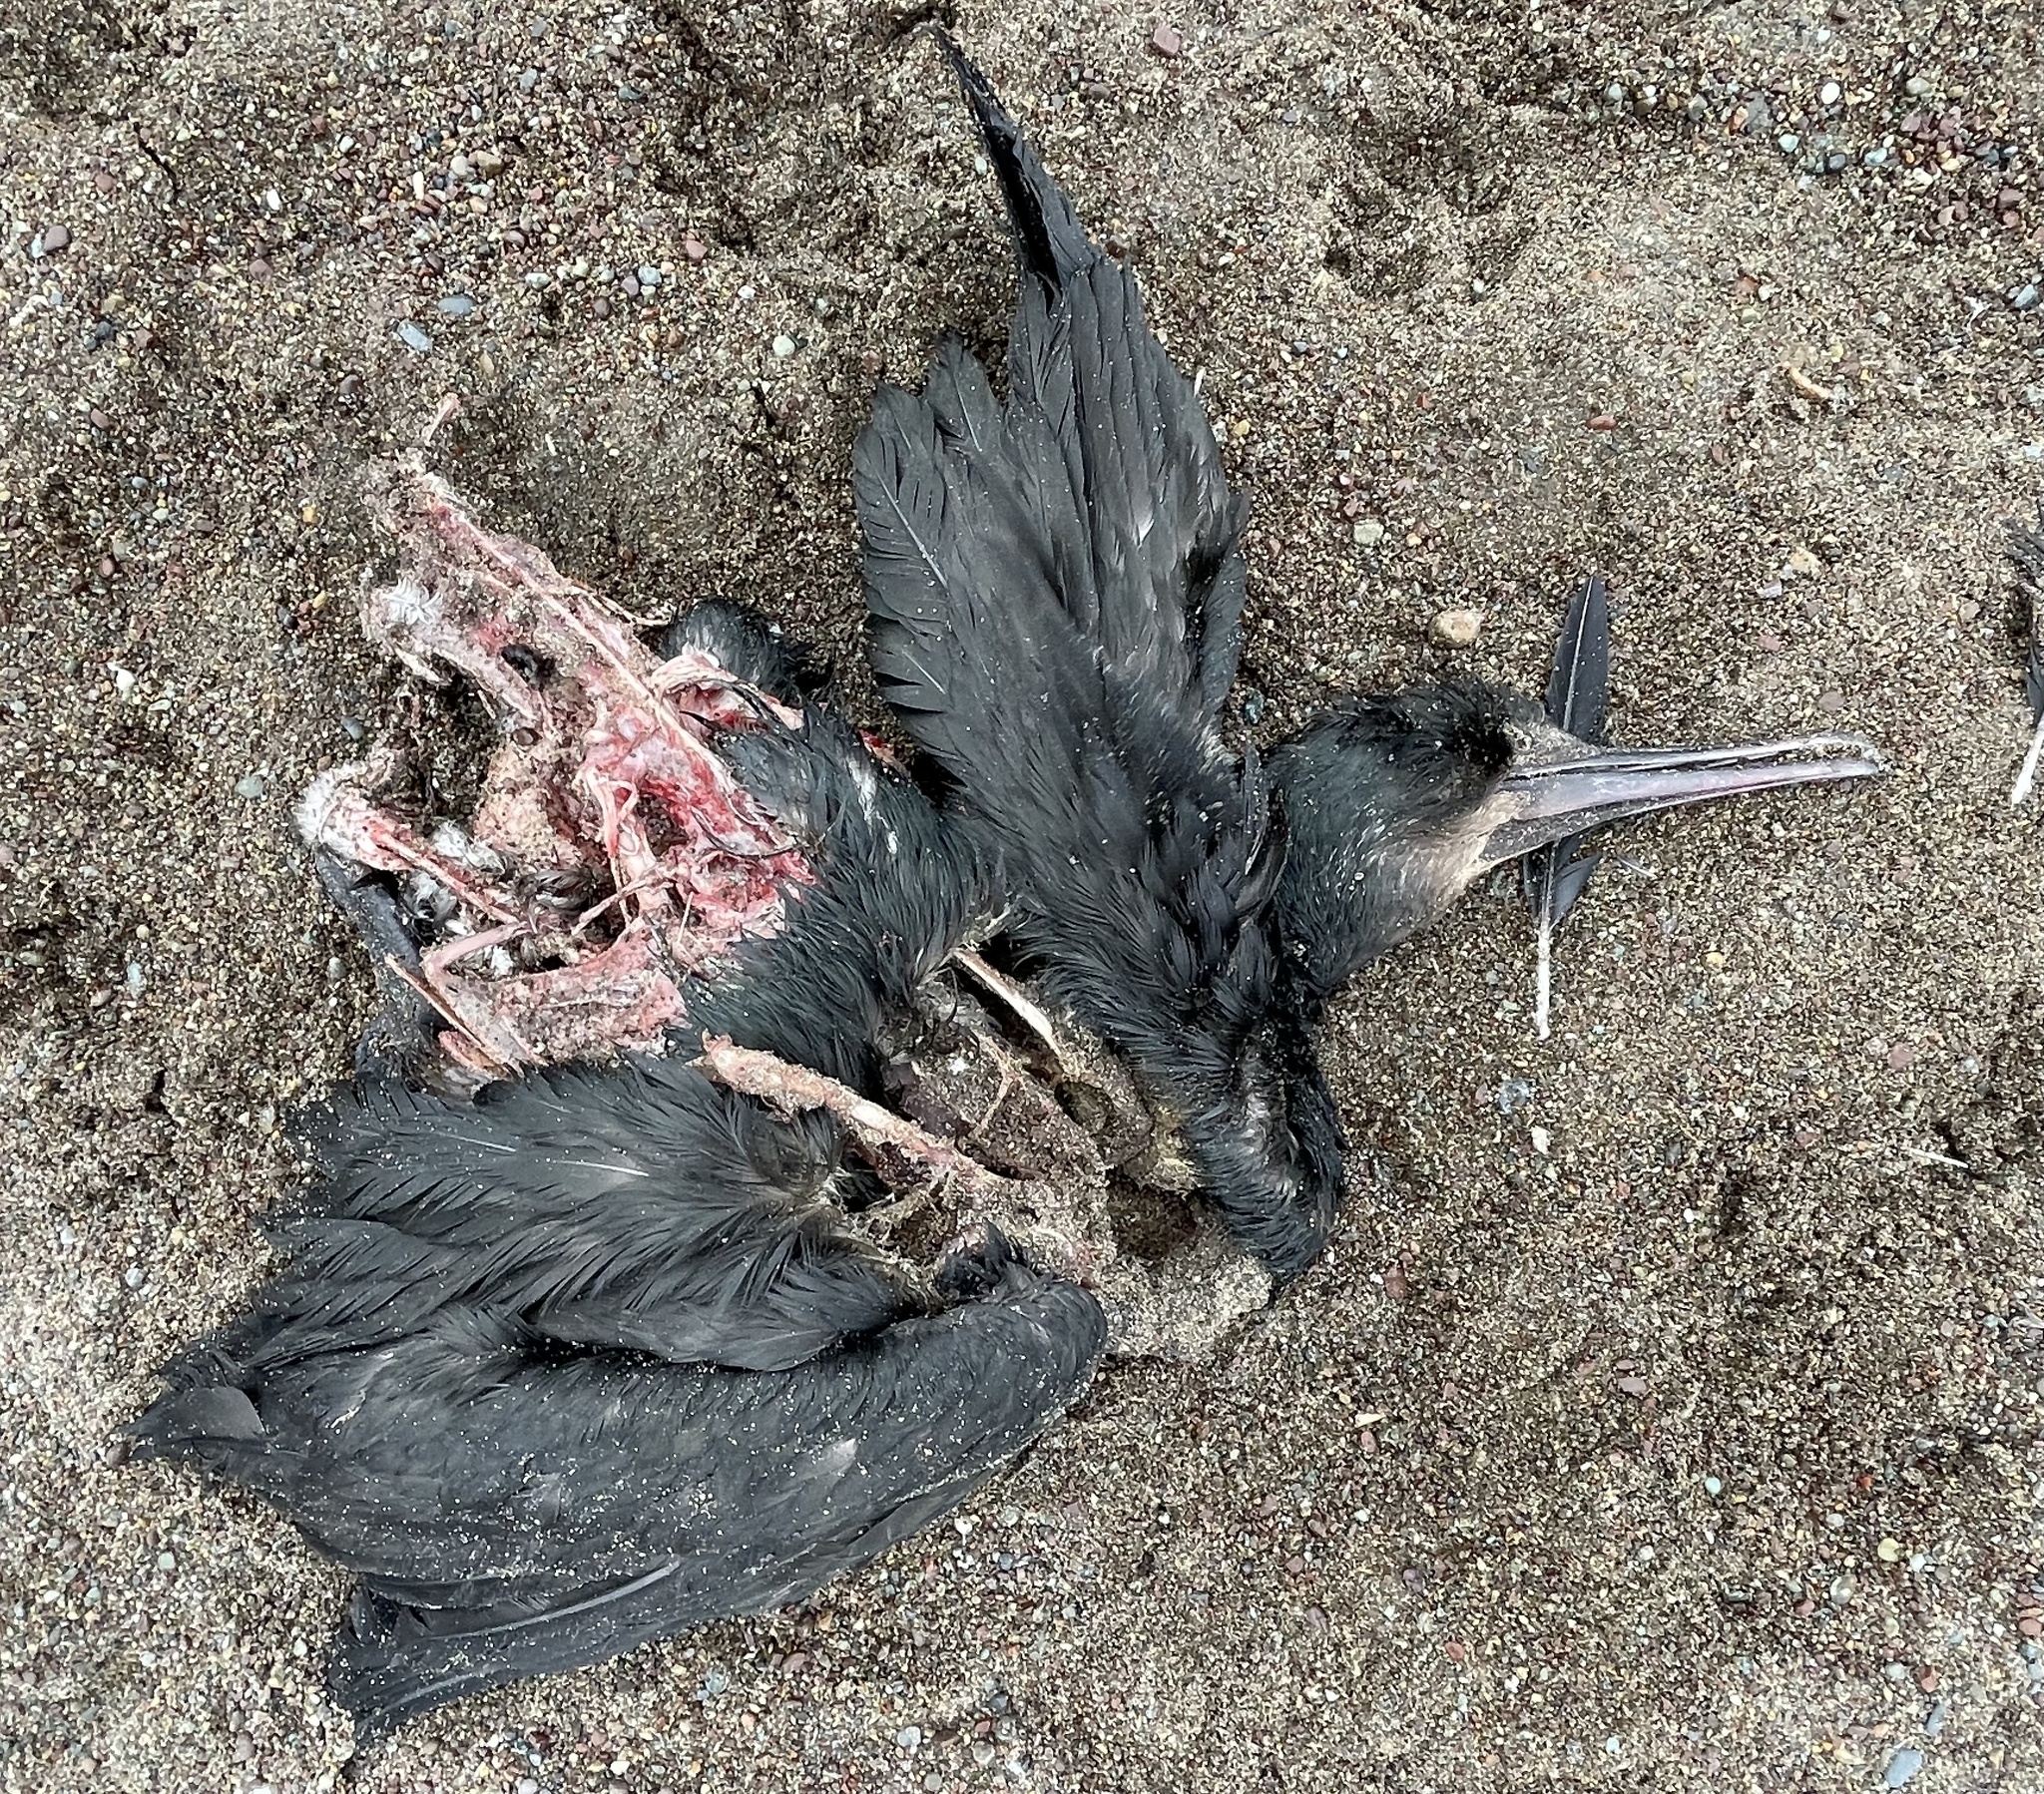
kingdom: Animalia
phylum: Chordata
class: Aves
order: Suliformes
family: Phalacrocoracidae
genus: Urile
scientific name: Urile penicillatus
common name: Brandt's cormorant
